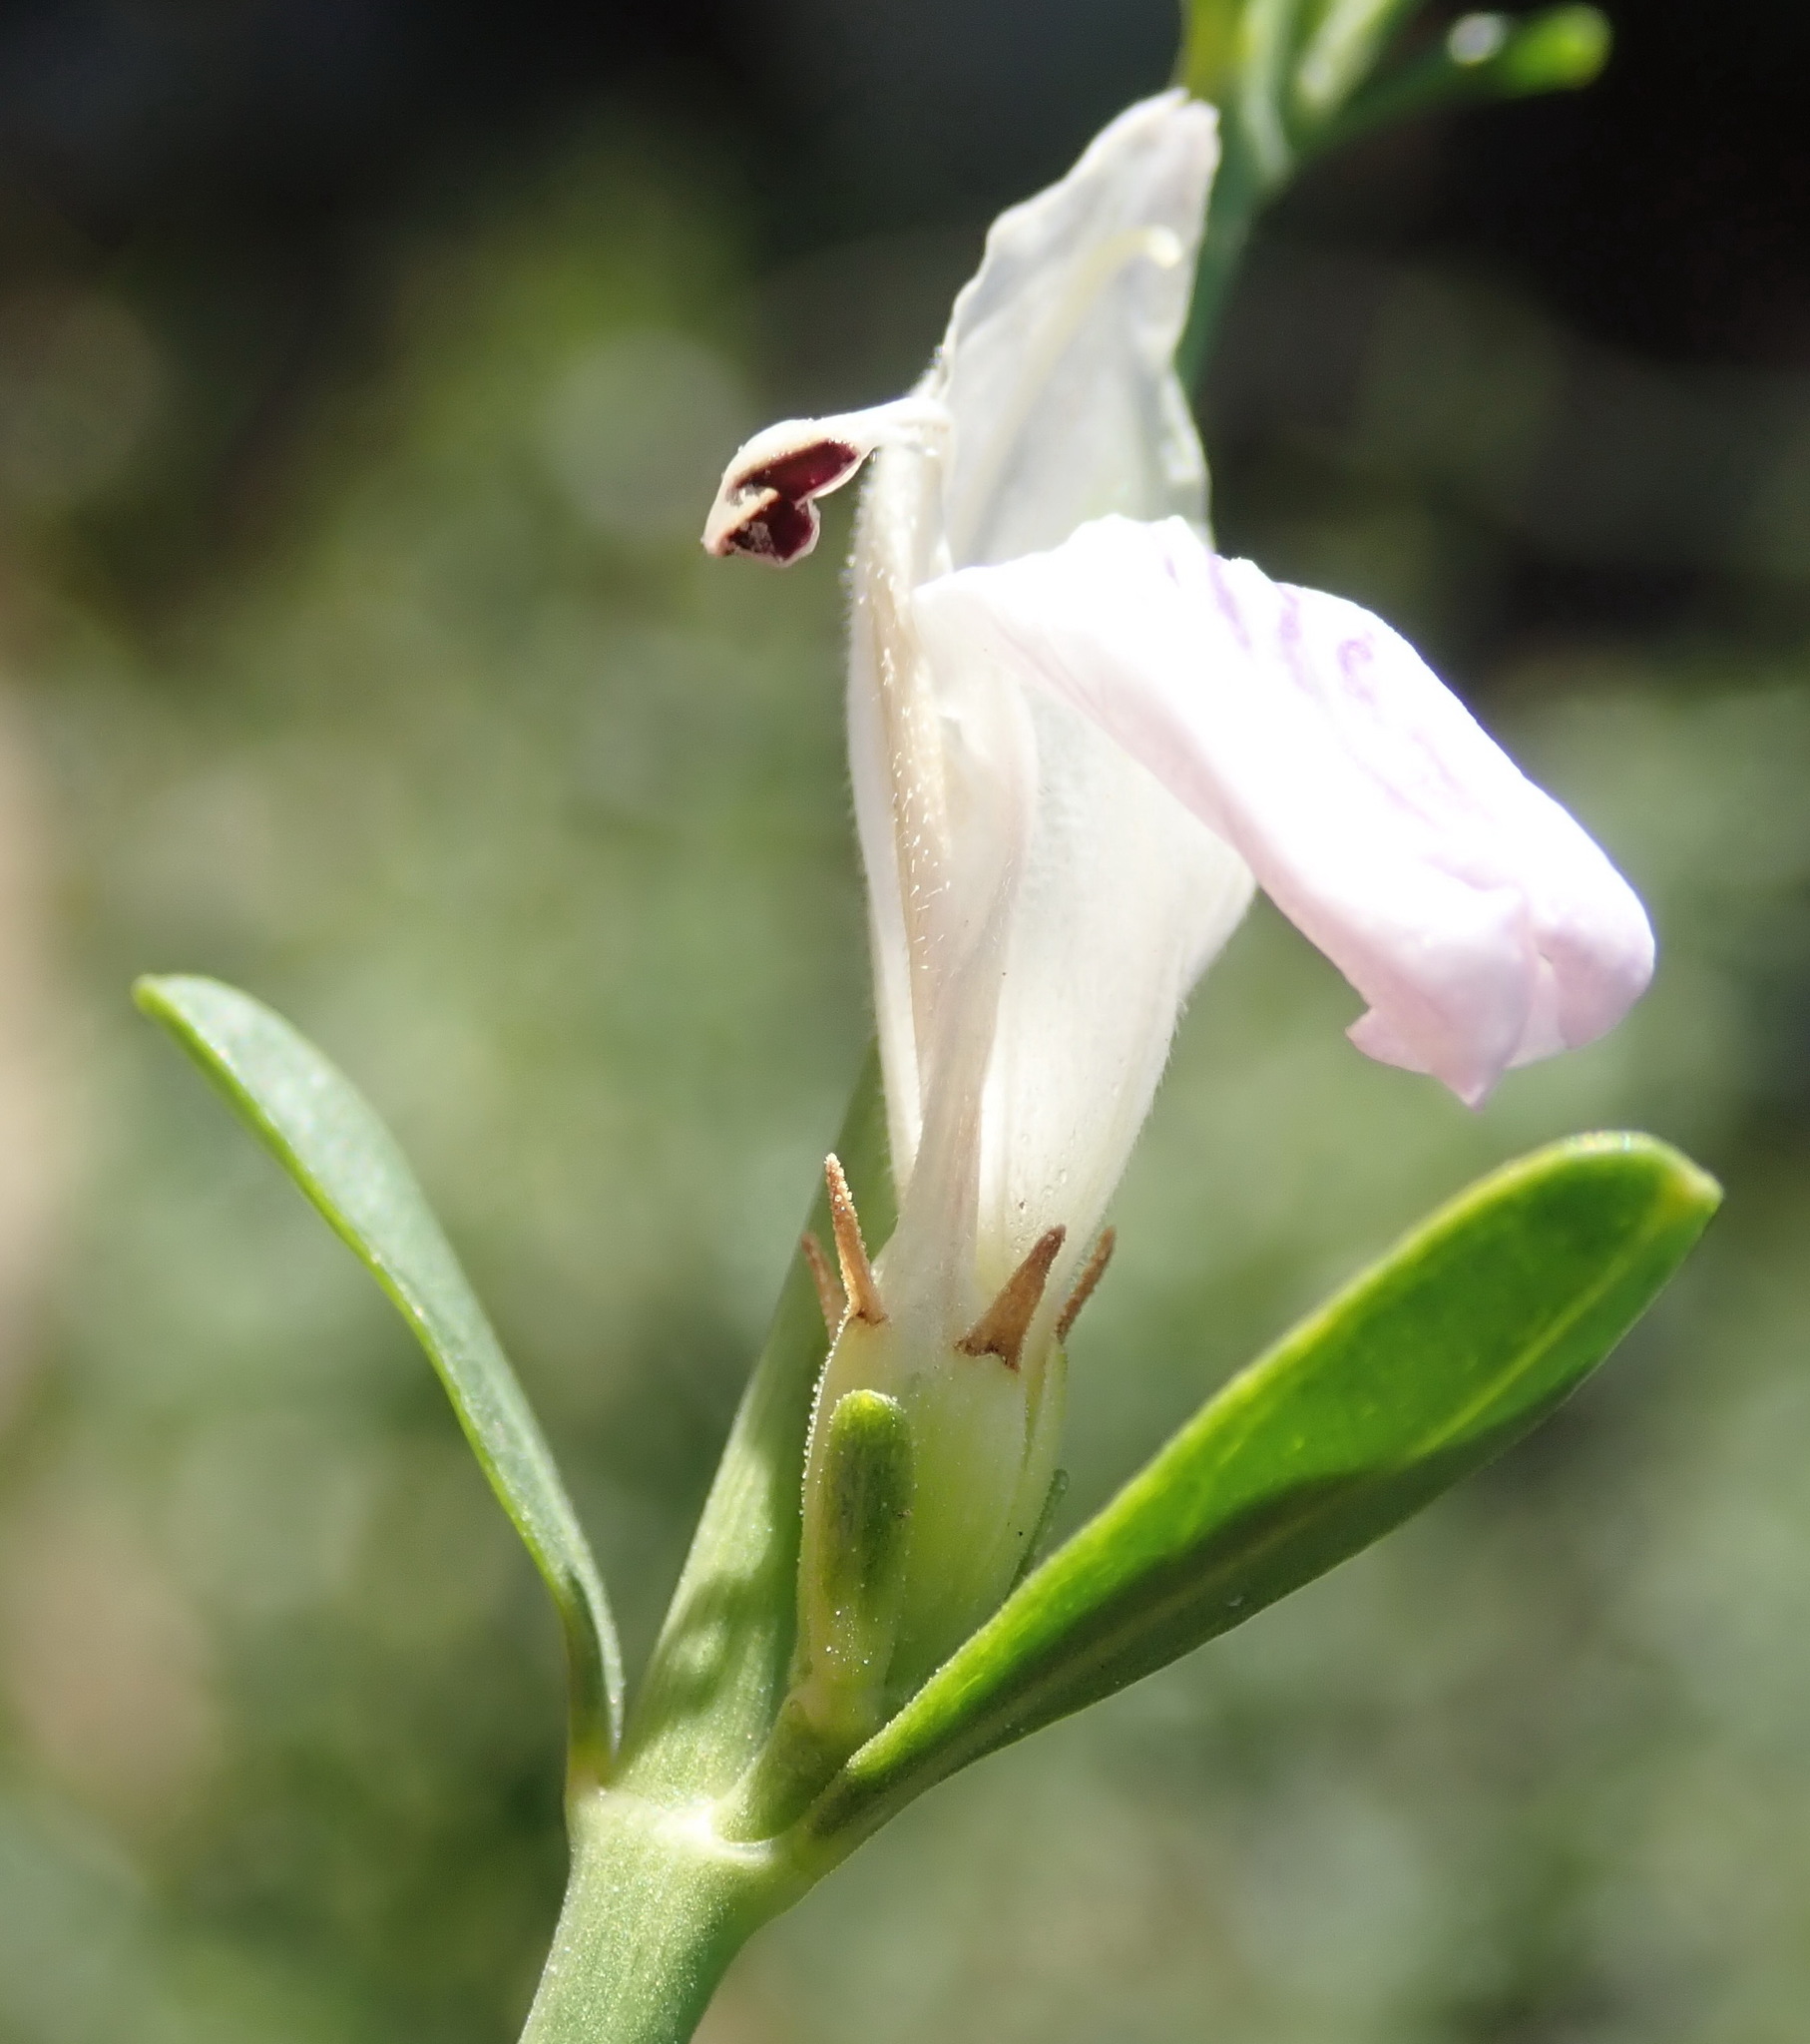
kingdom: Plantae
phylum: Tracheophyta
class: Magnoliopsida
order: Lamiales
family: Acanthaceae
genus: Pogonospermum
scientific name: Pogonospermum
